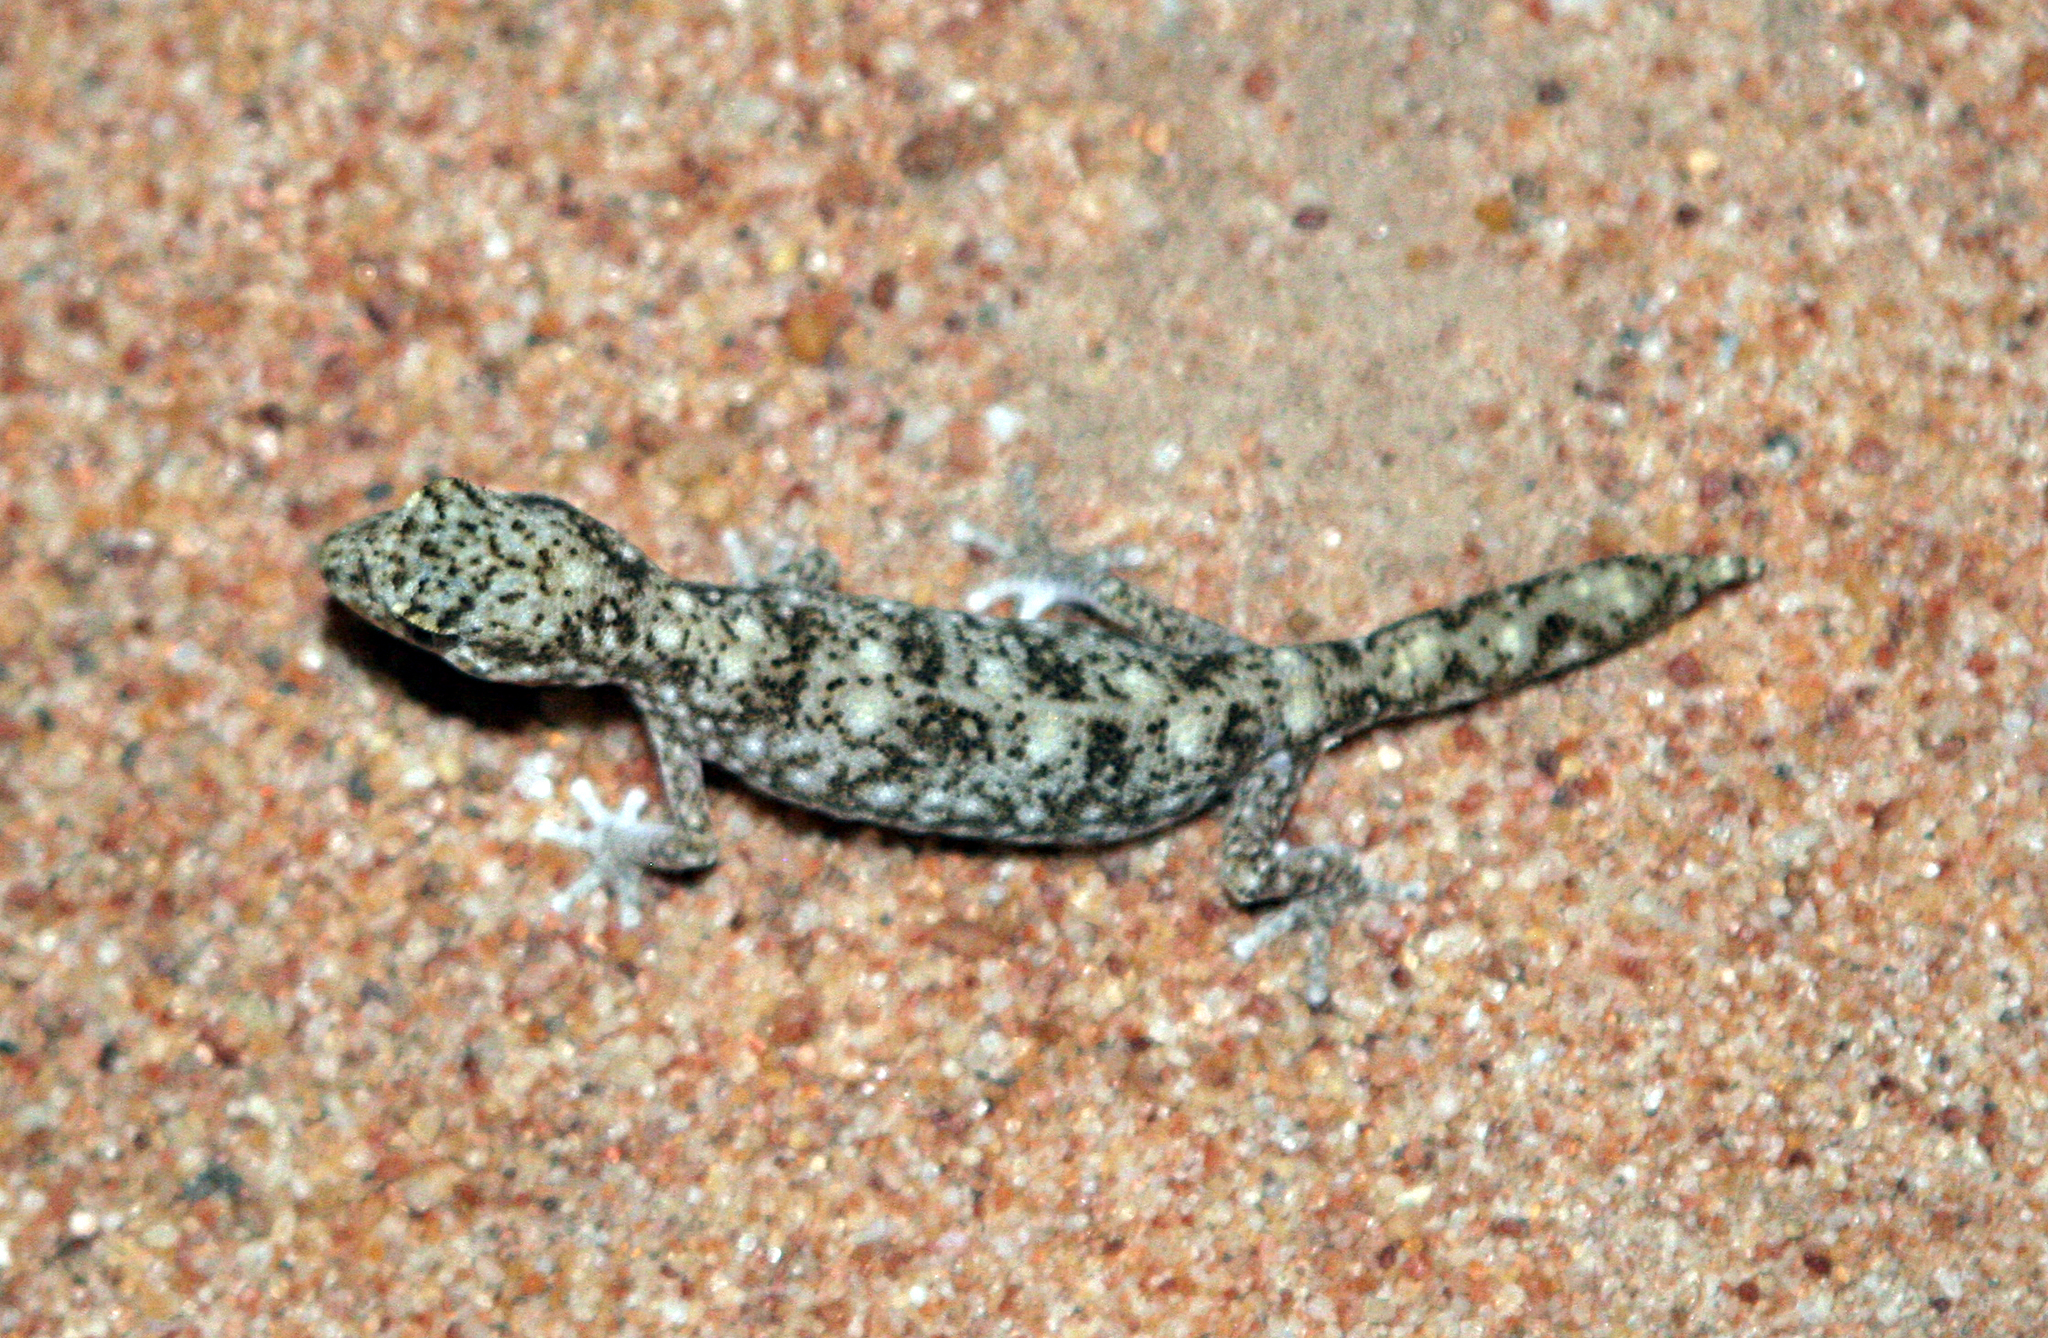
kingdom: Animalia
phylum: Chordata
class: Squamata
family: Diplodactylidae
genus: Diplodactylus
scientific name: Diplodactylus tessellatus
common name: Tesselated gecko
